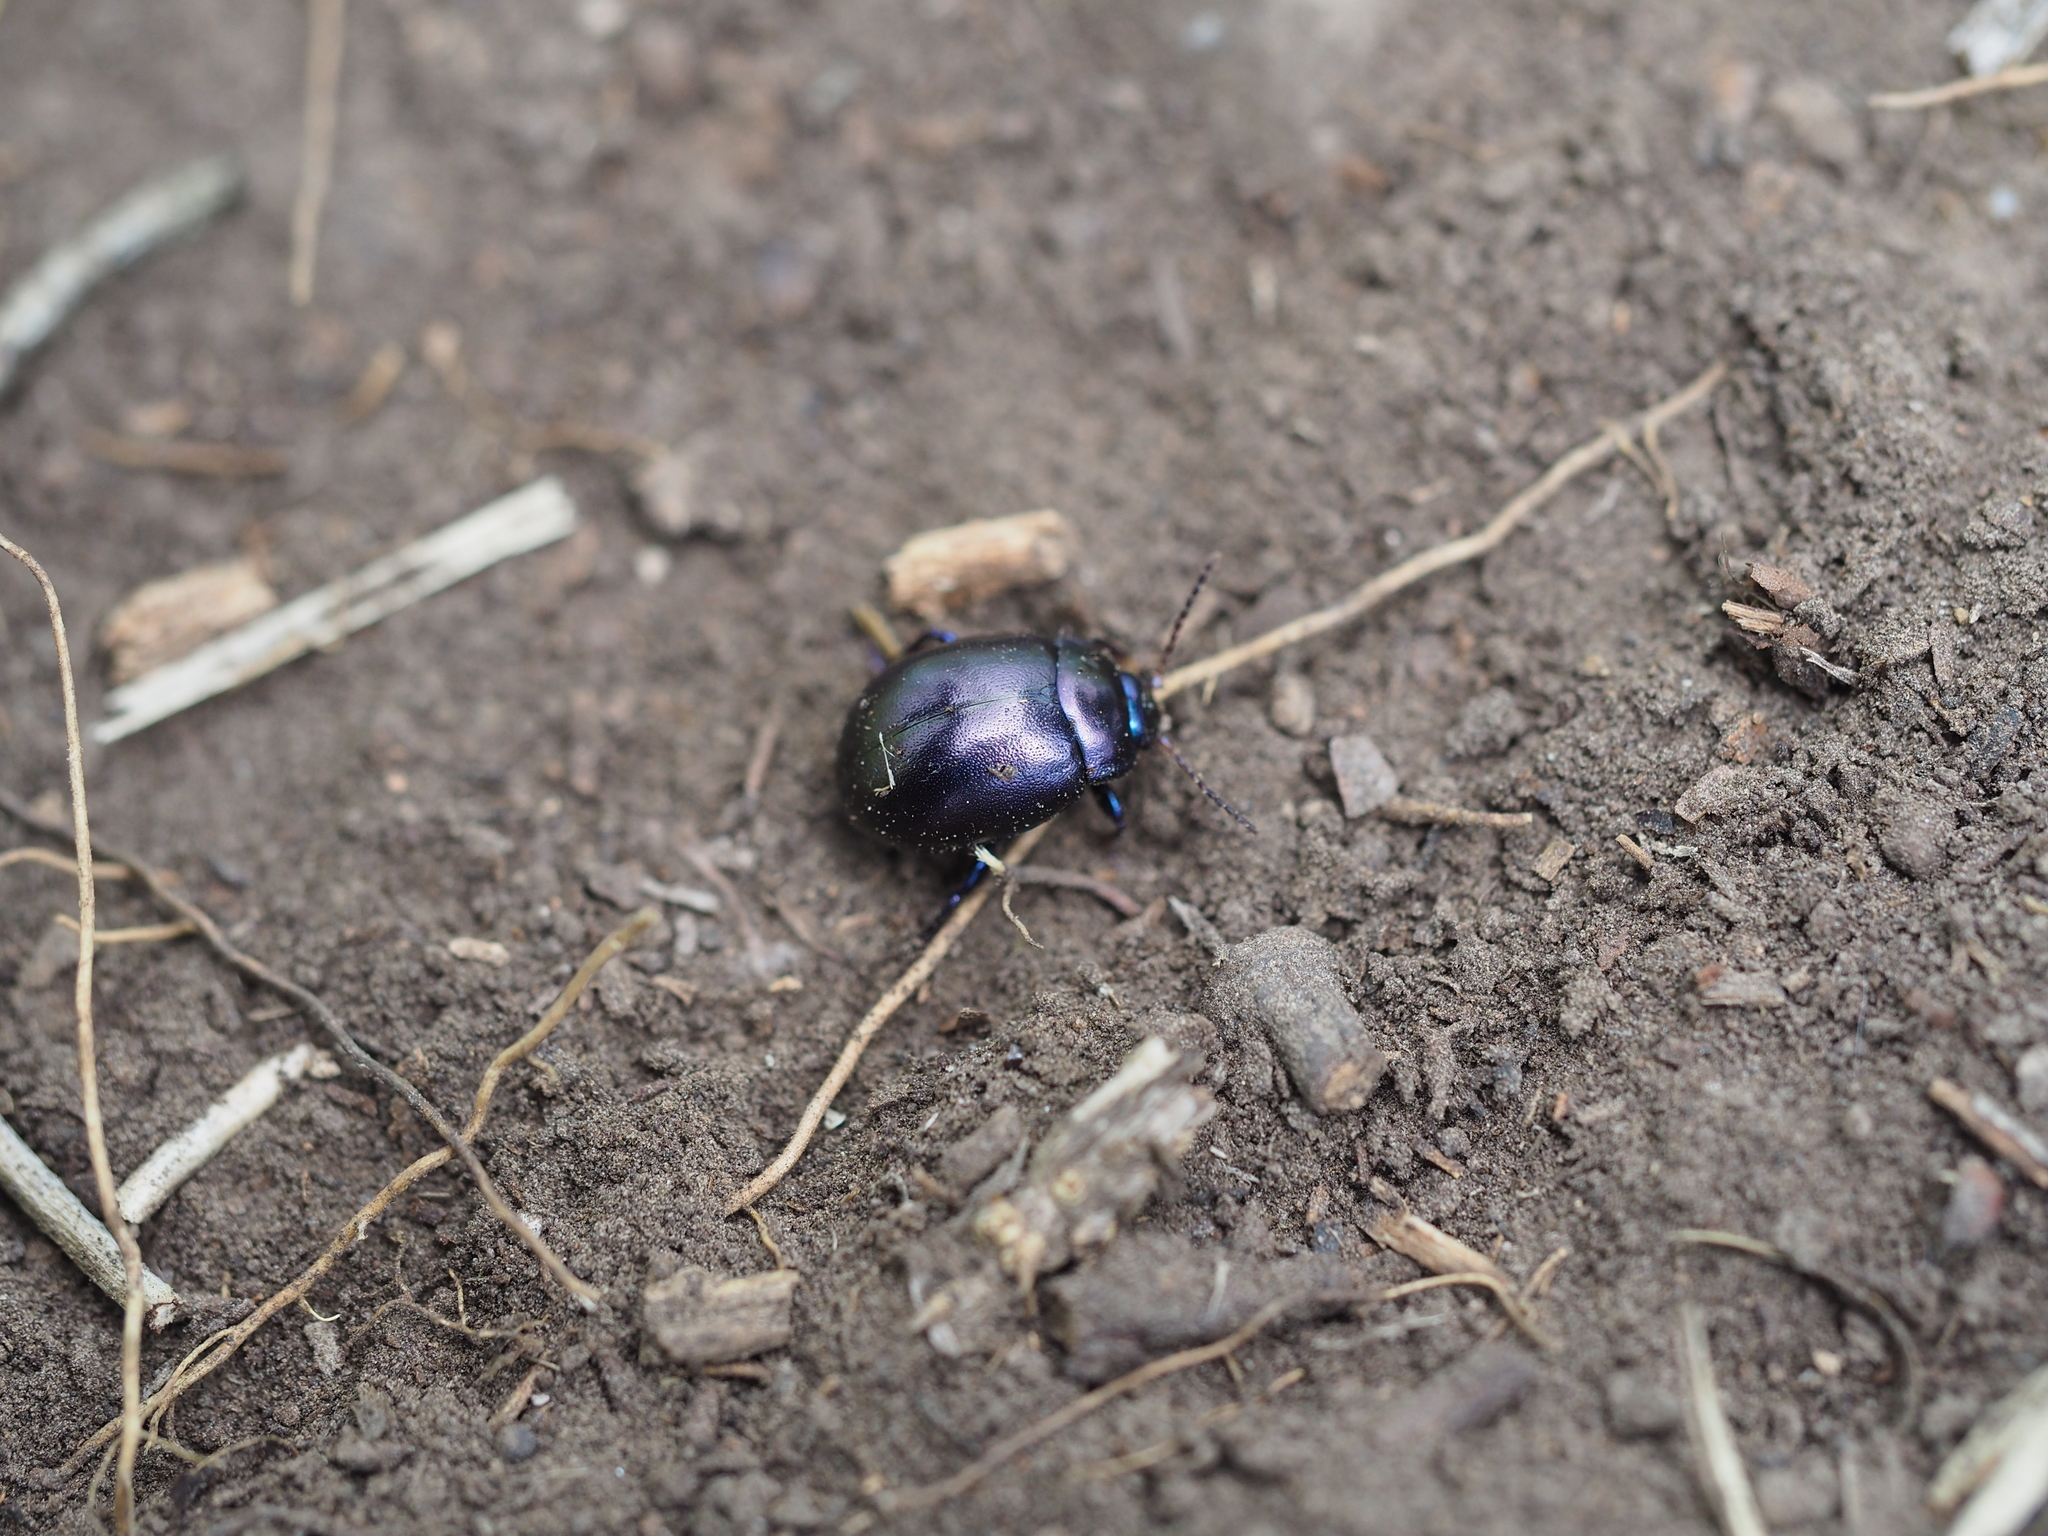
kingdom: Animalia
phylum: Arthropoda
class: Insecta
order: Coleoptera
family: Chrysomelidae
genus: Chrysolina
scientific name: Chrysolina sturmi
